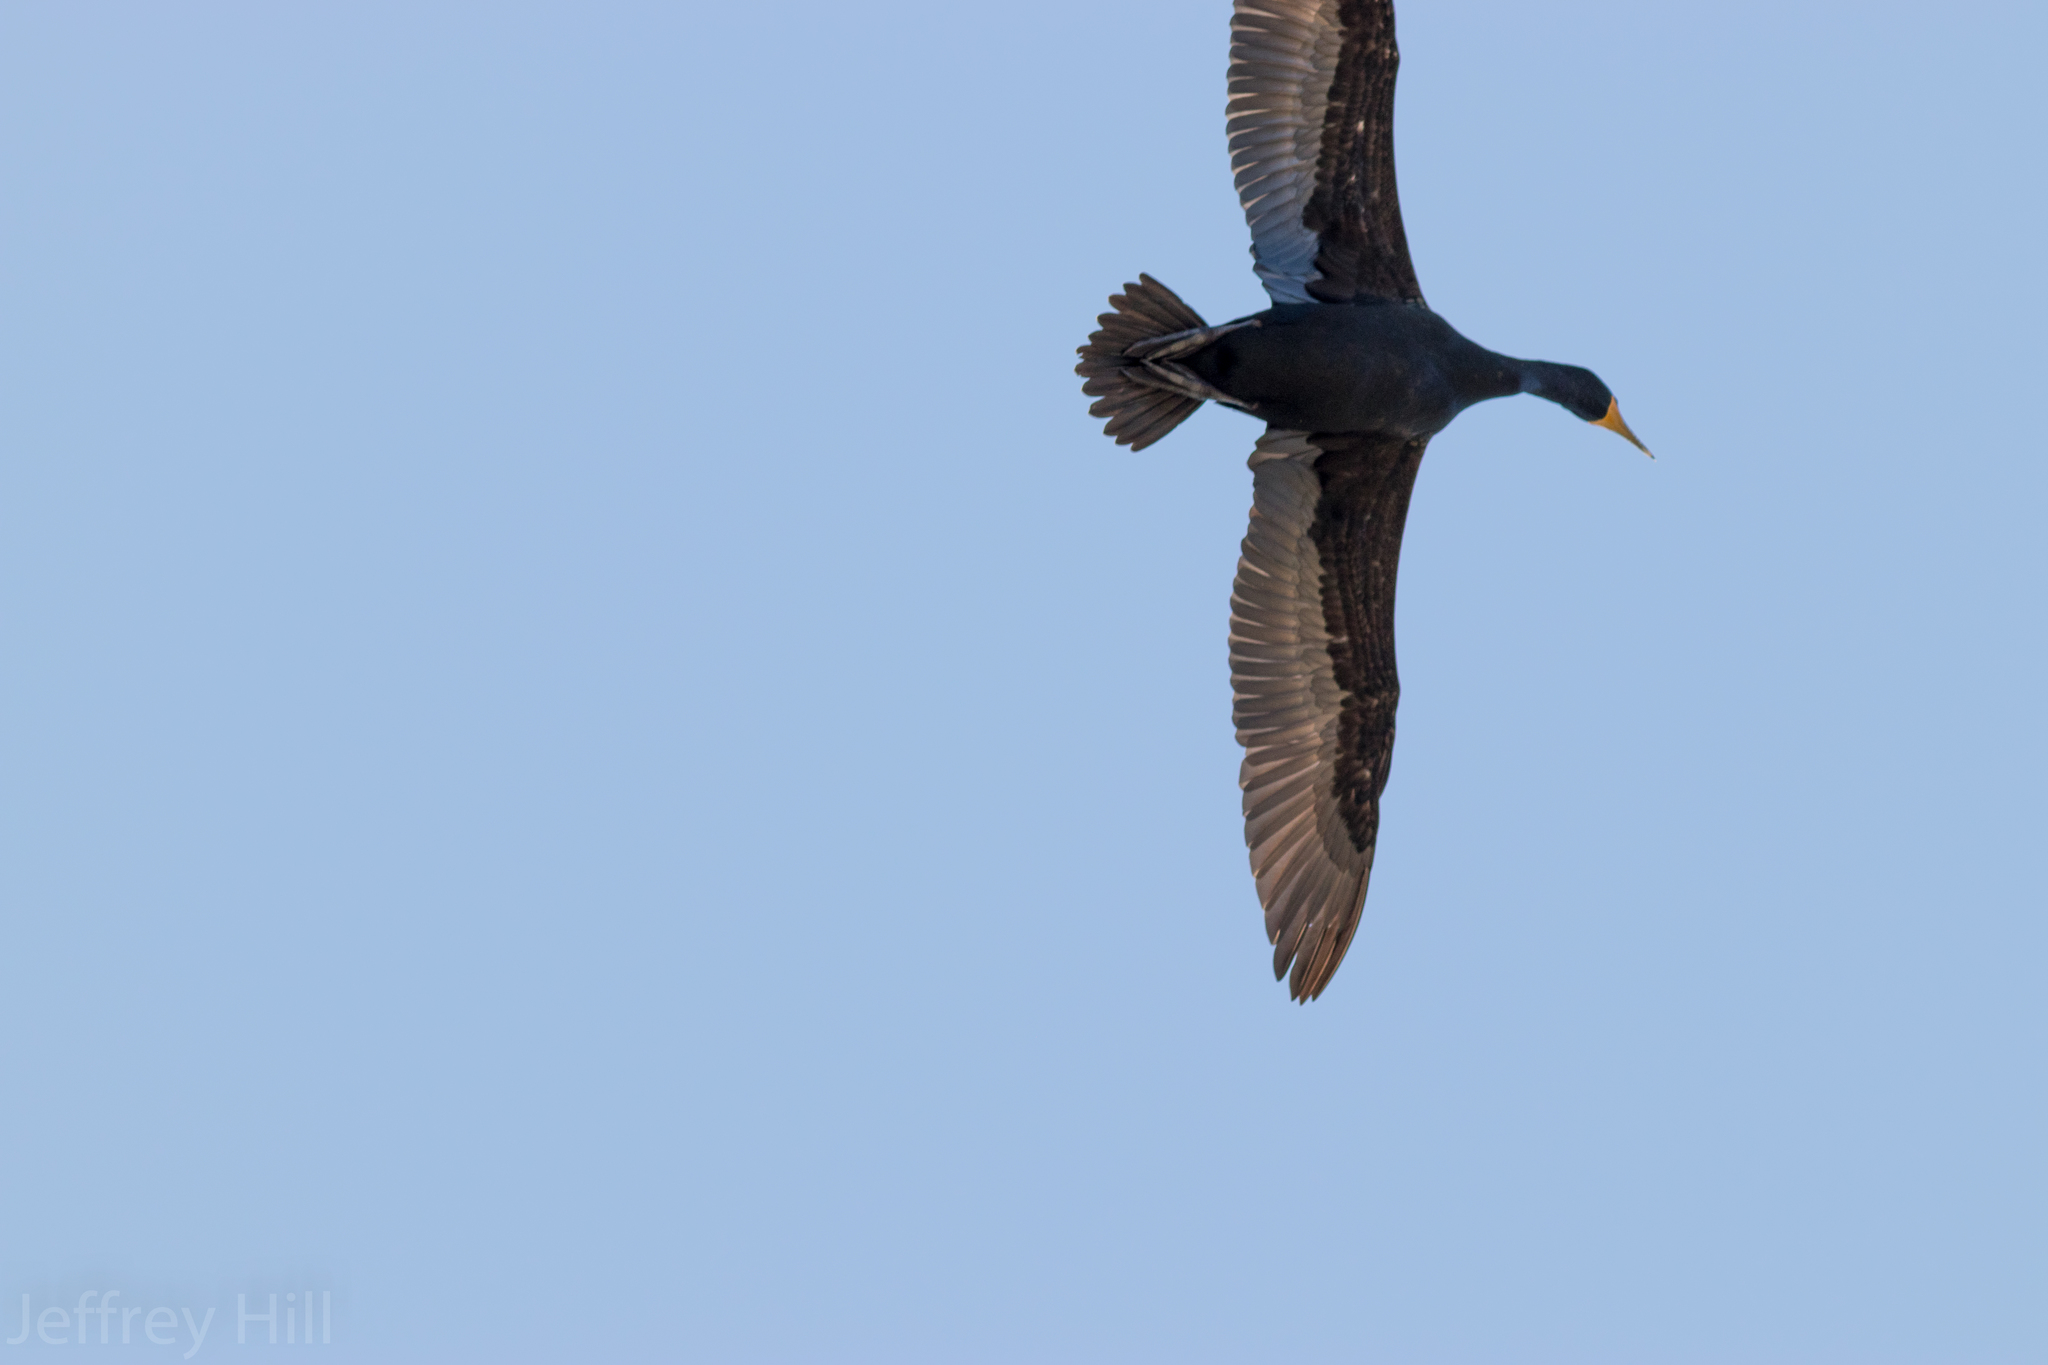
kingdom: Animalia
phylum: Chordata
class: Aves
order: Suliformes
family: Phalacrocoracidae
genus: Phalacrocorax
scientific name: Phalacrocorax auritus
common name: Double-crested cormorant
